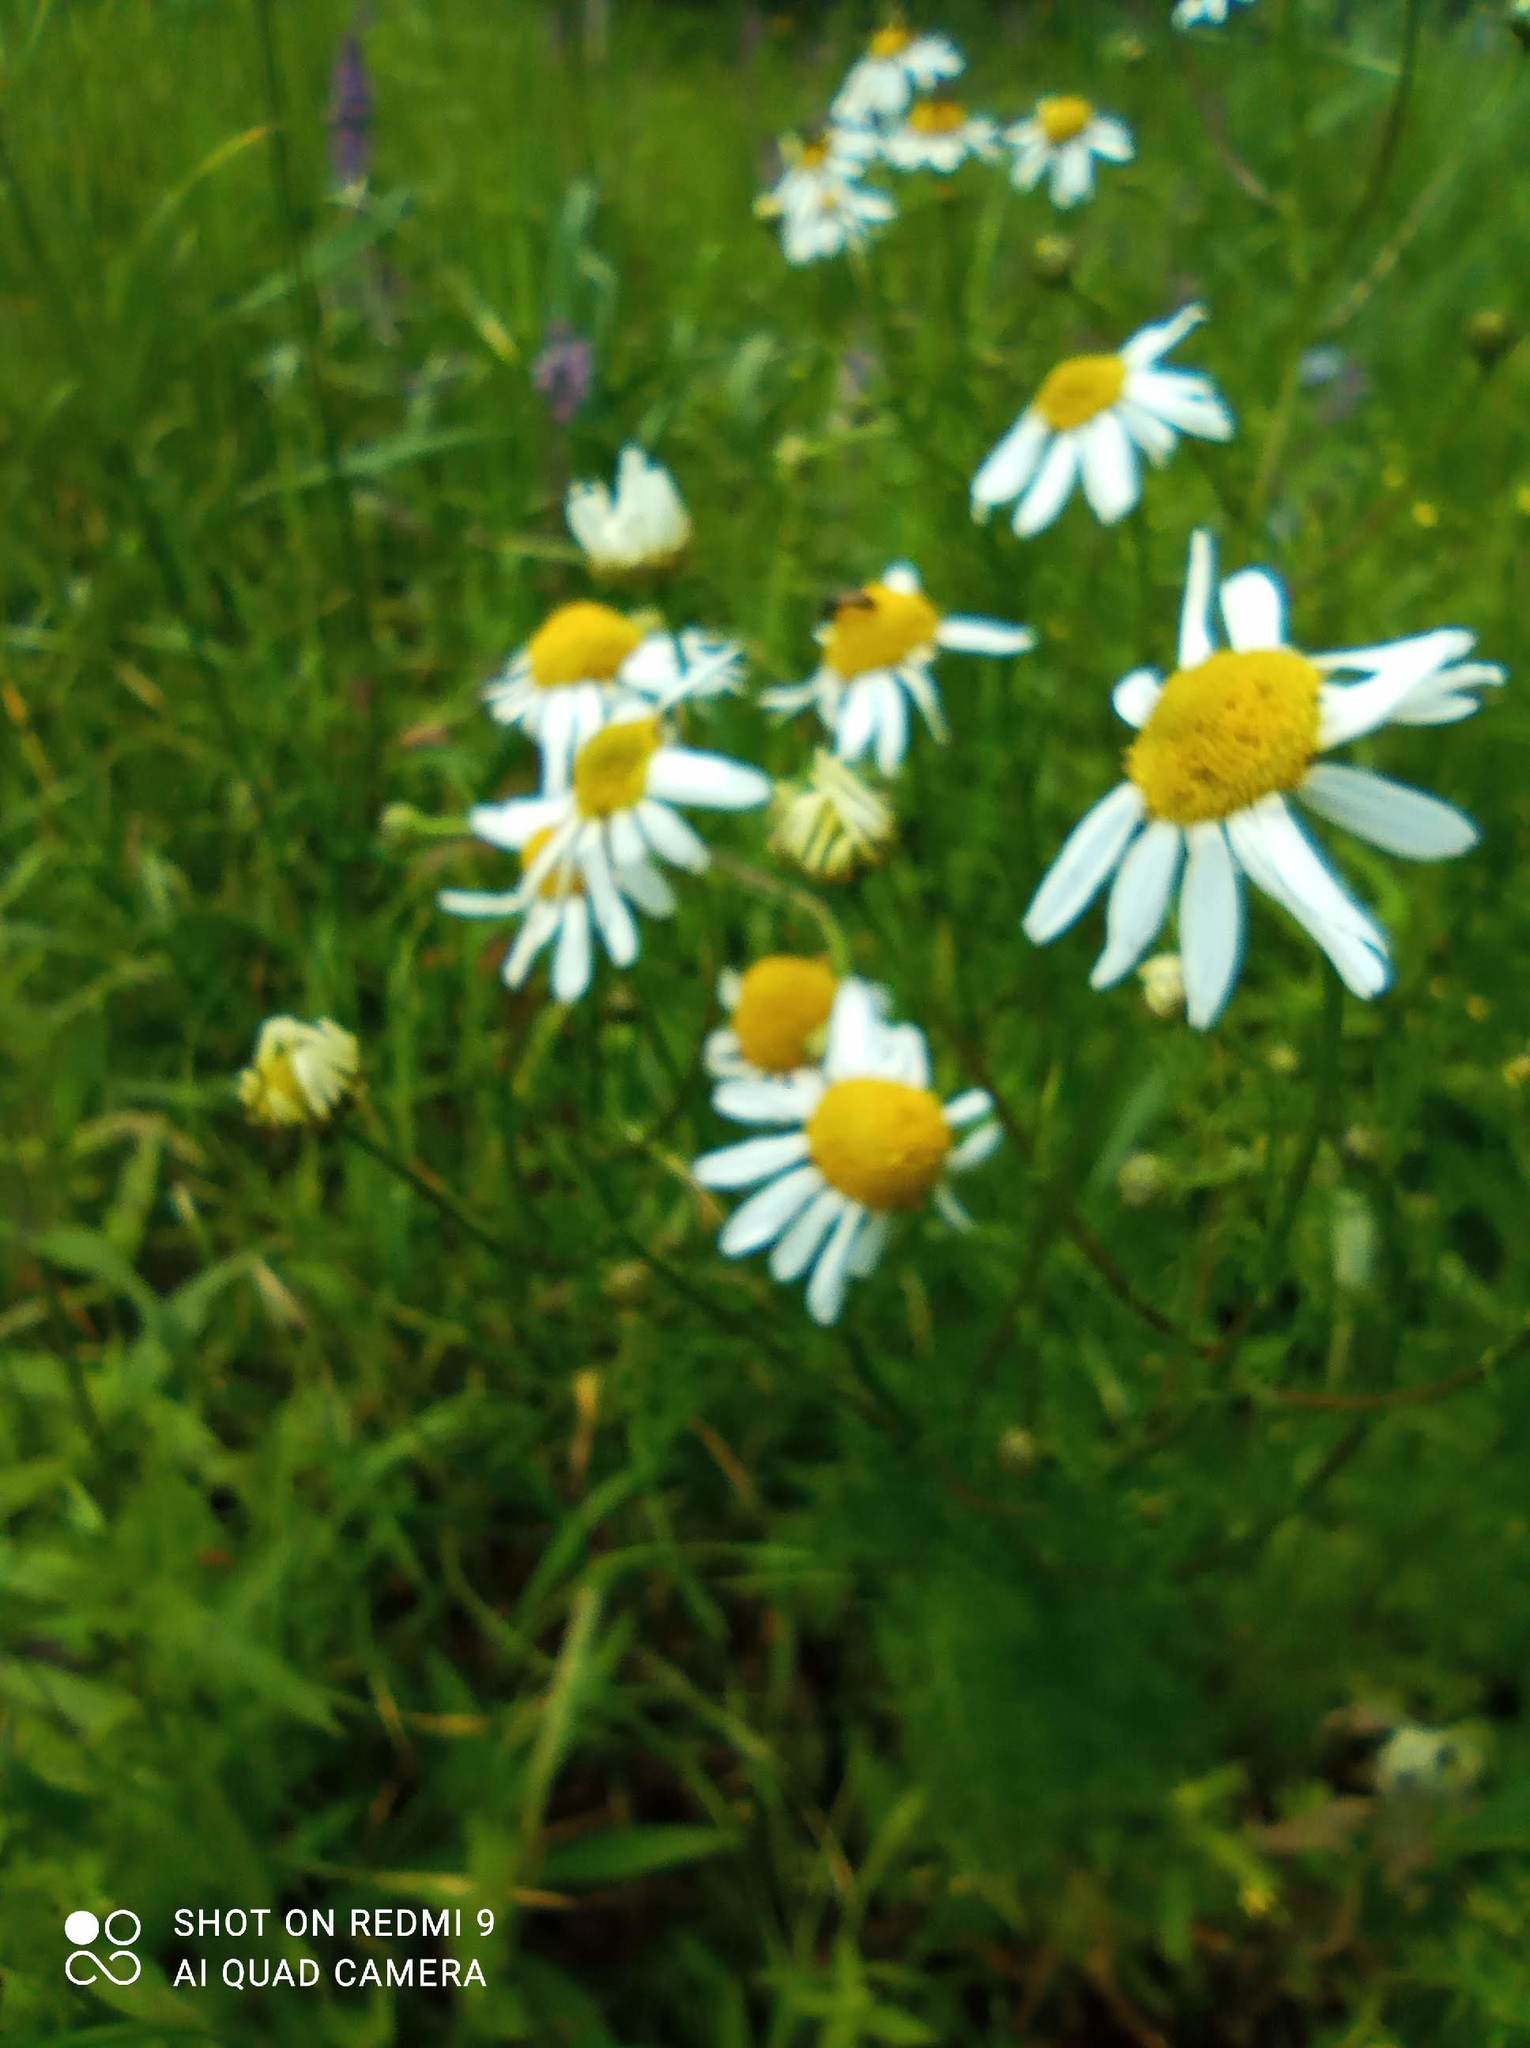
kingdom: Plantae
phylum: Tracheophyta
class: Magnoliopsida
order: Asterales
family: Asteraceae
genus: Tripleurospermum
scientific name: Tripleurospermum inodorum
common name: Scentless mayweed
